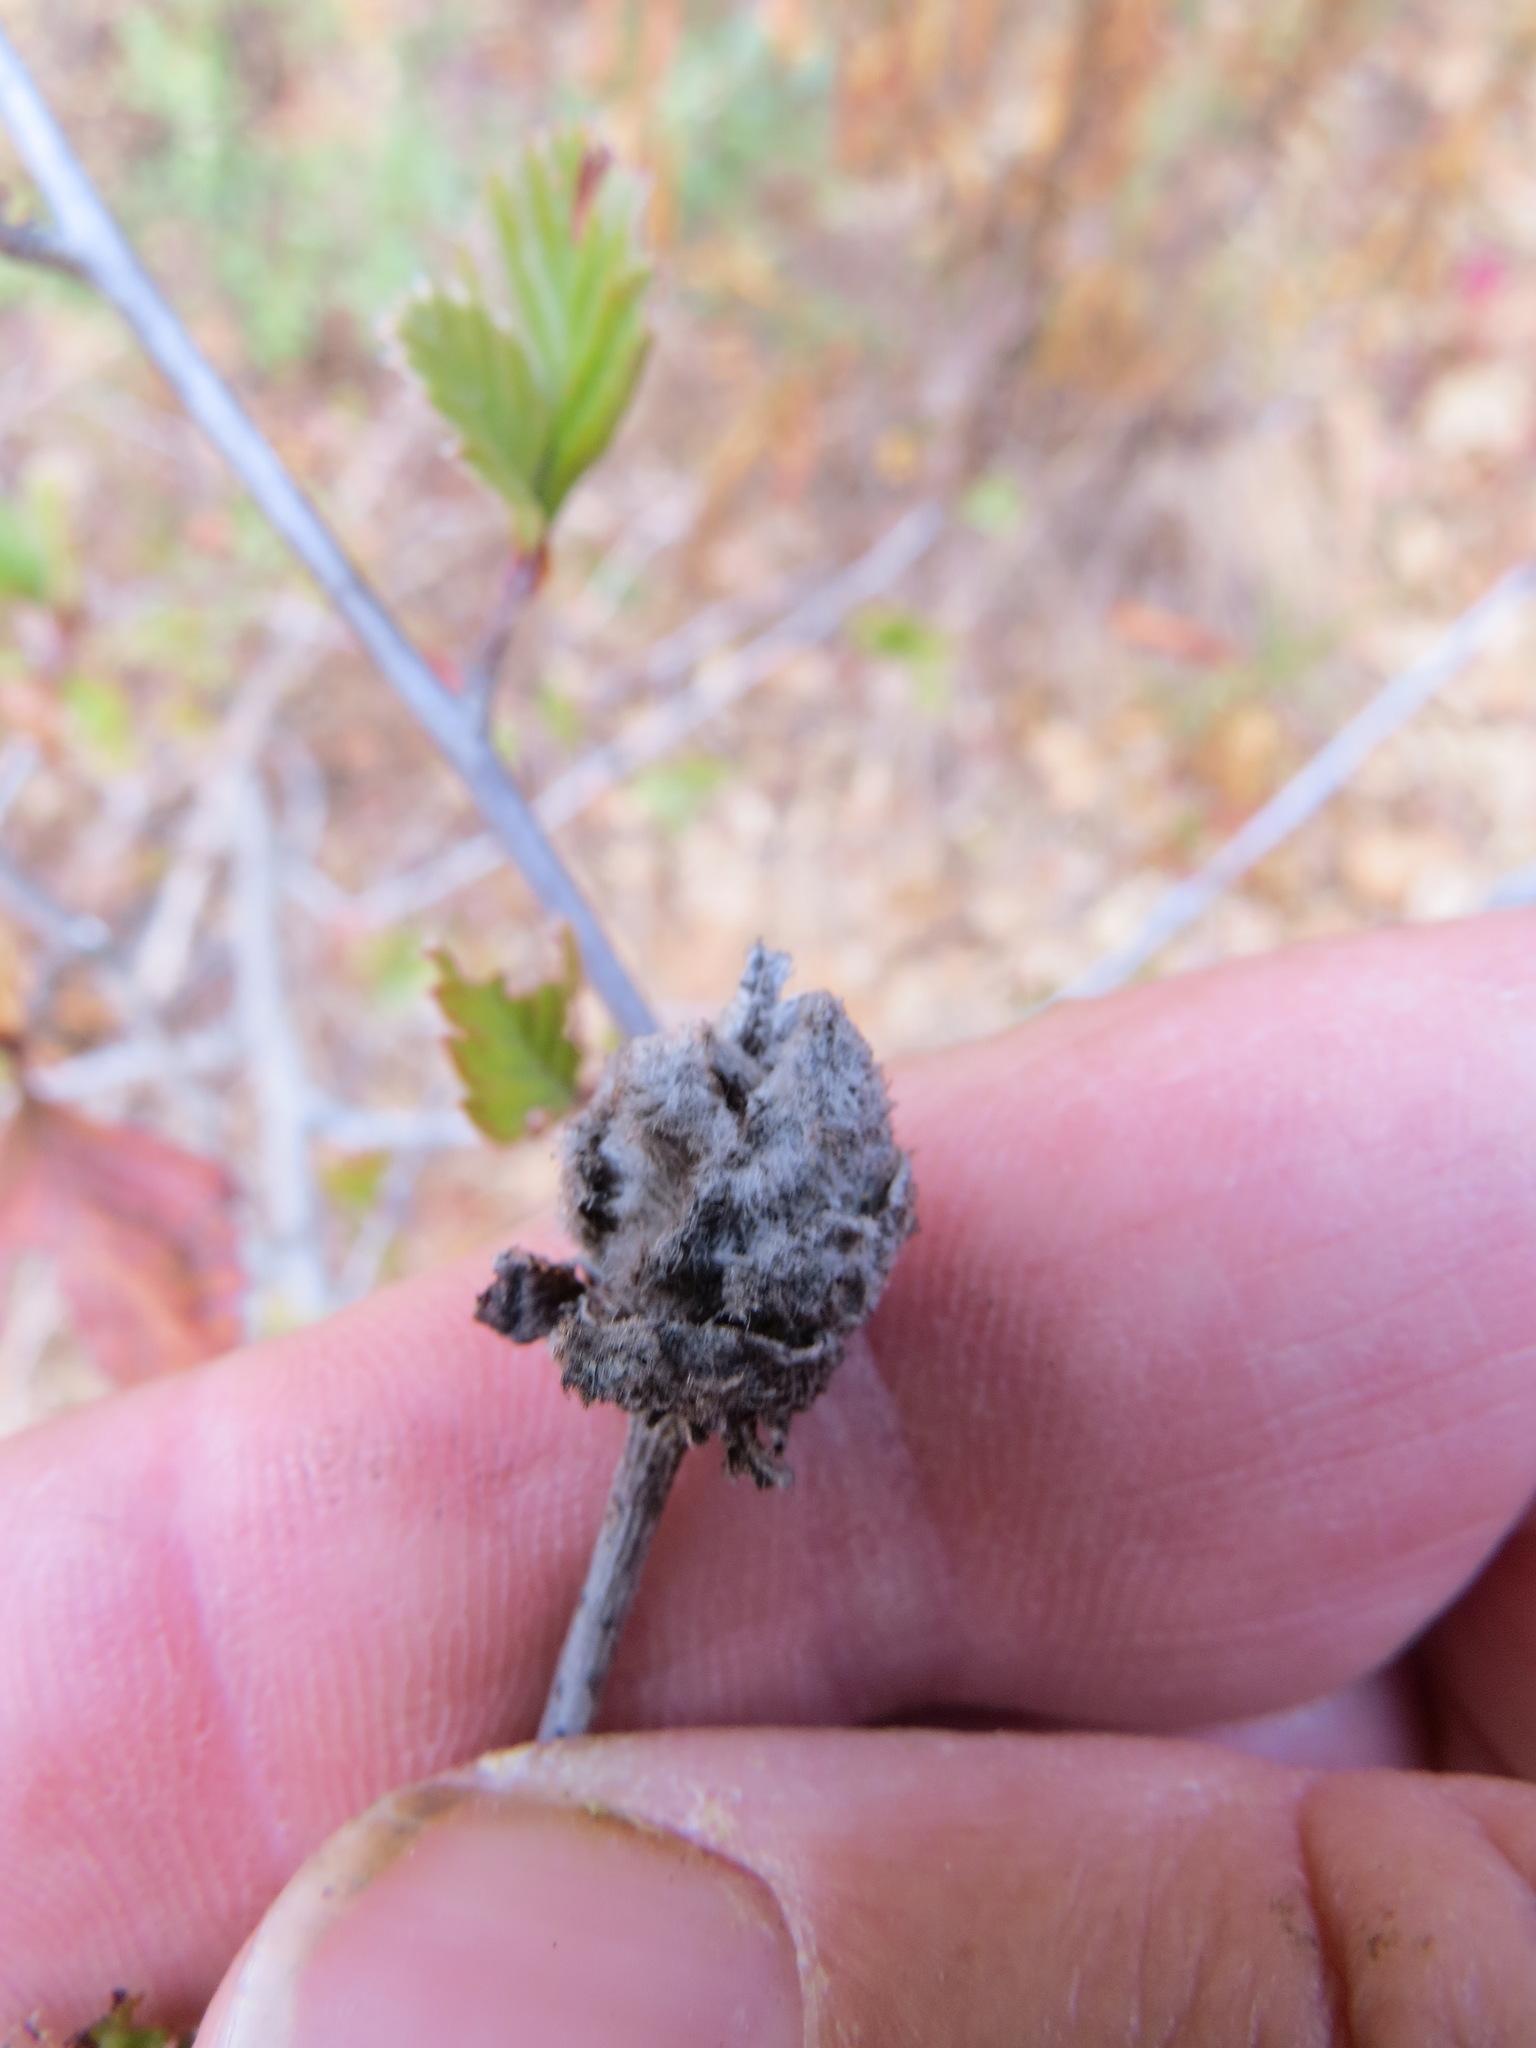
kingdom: Animalia
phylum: Arthropoda
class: Insecta
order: Diptera
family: Cecidomyiidae
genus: Dasineura
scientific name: Dasineura cercocarpi
